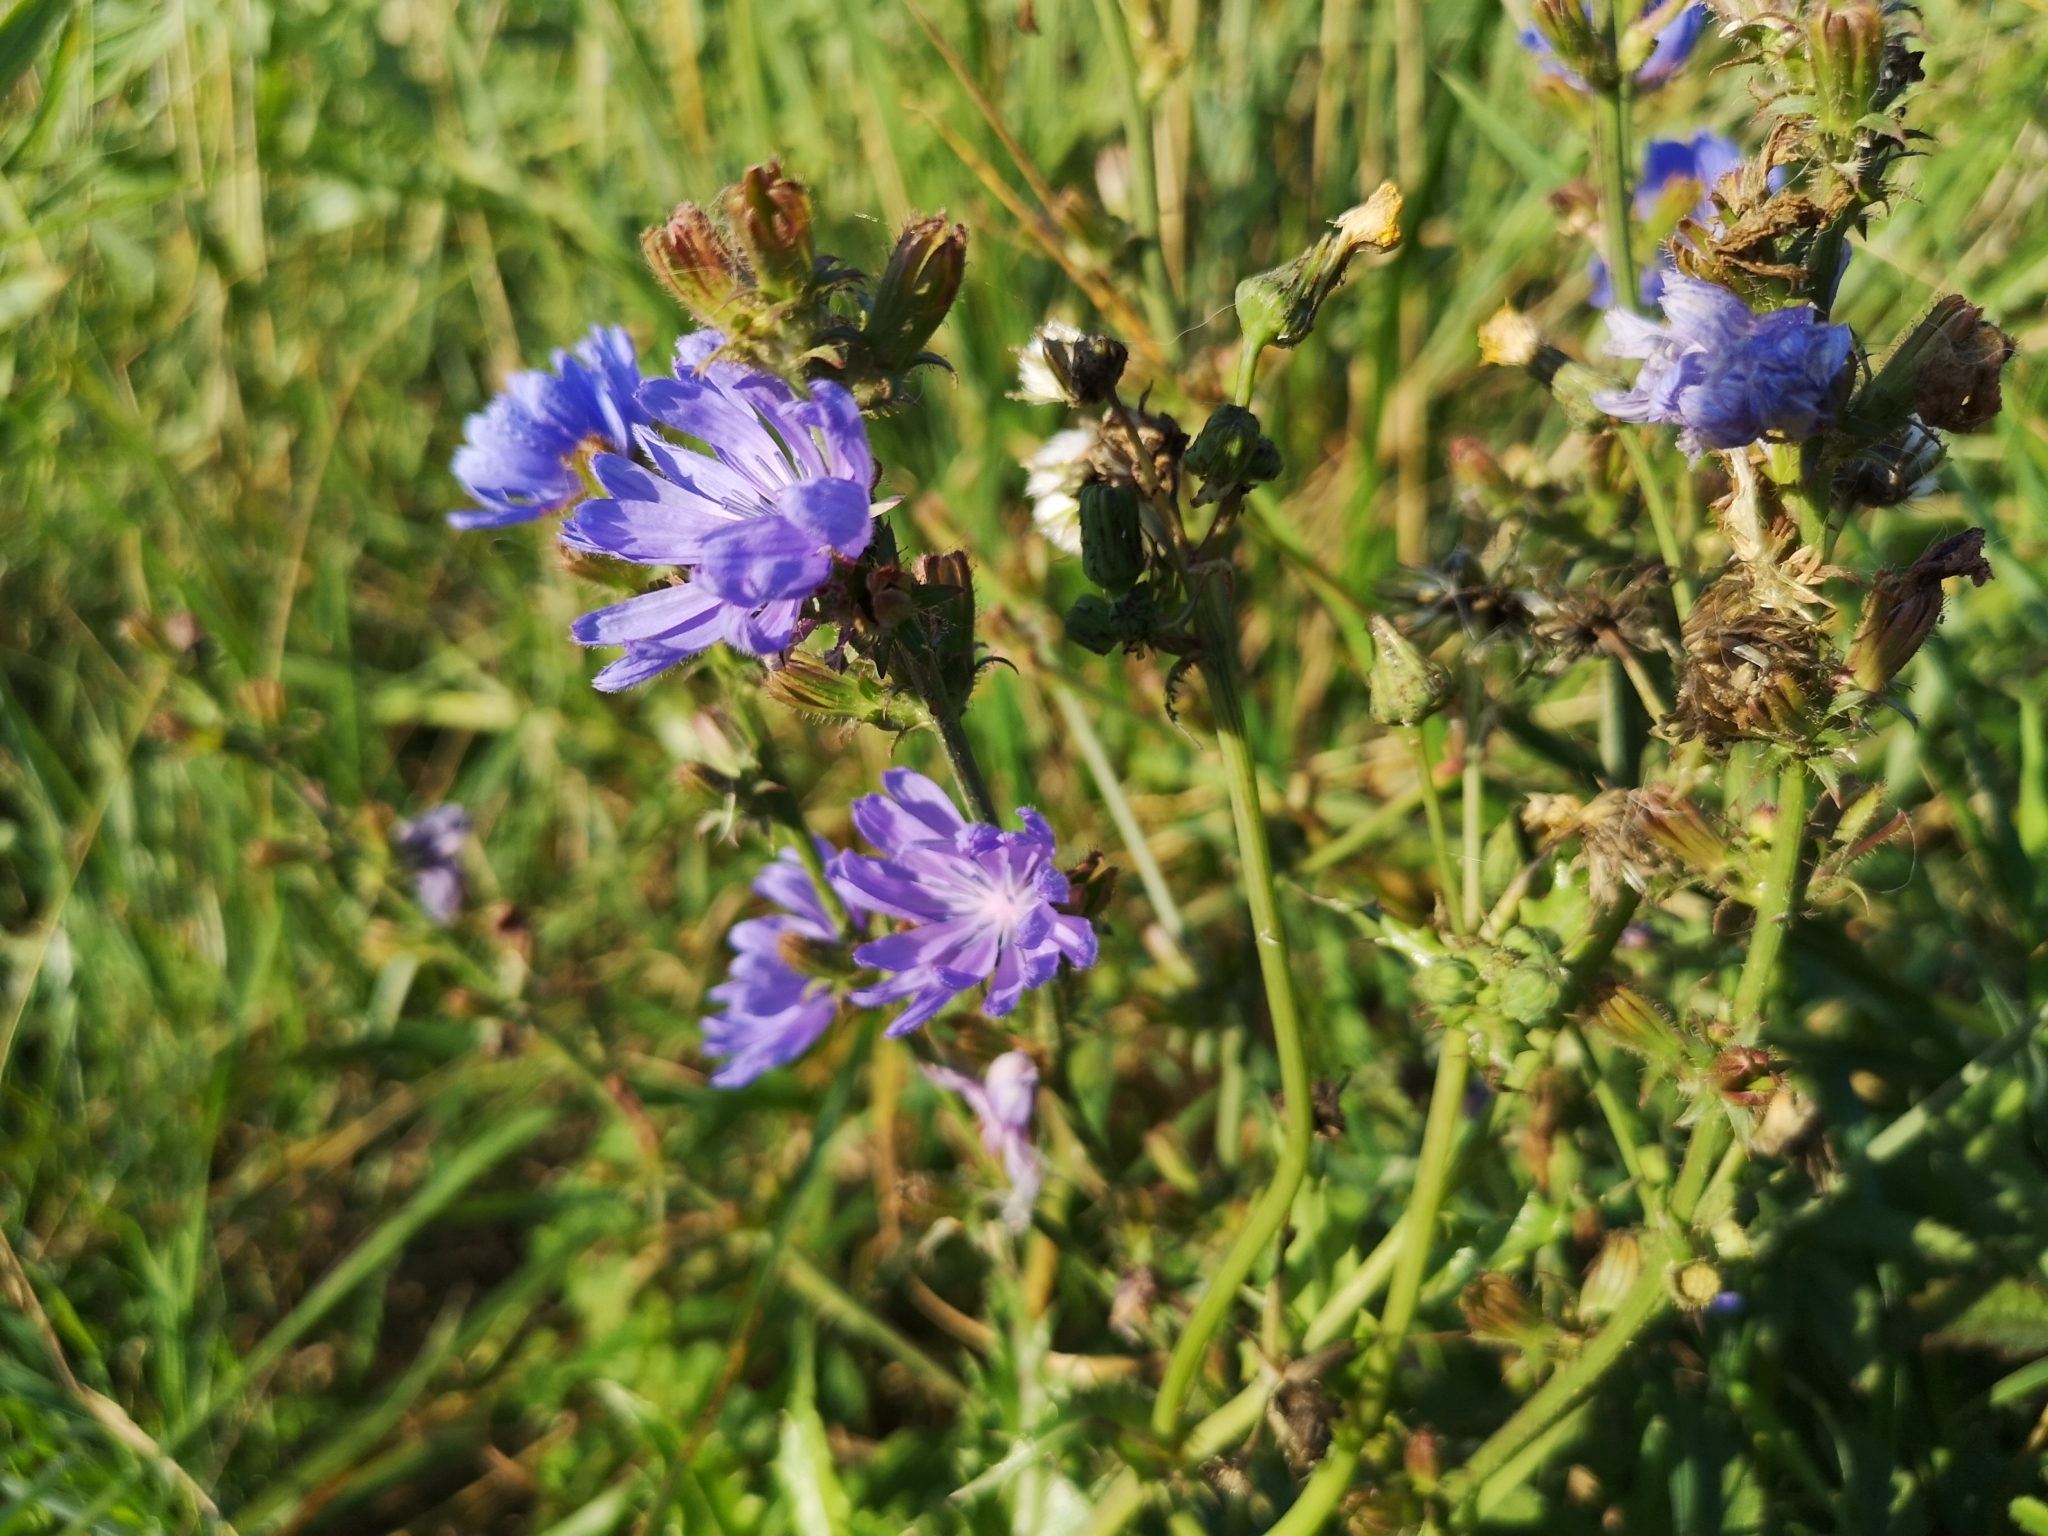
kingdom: Plantae
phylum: Tracheophyta
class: Magnoliopsida
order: Asterales
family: Asteraceae
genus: Cichorium
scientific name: Cichorium intybus
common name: Chicory
